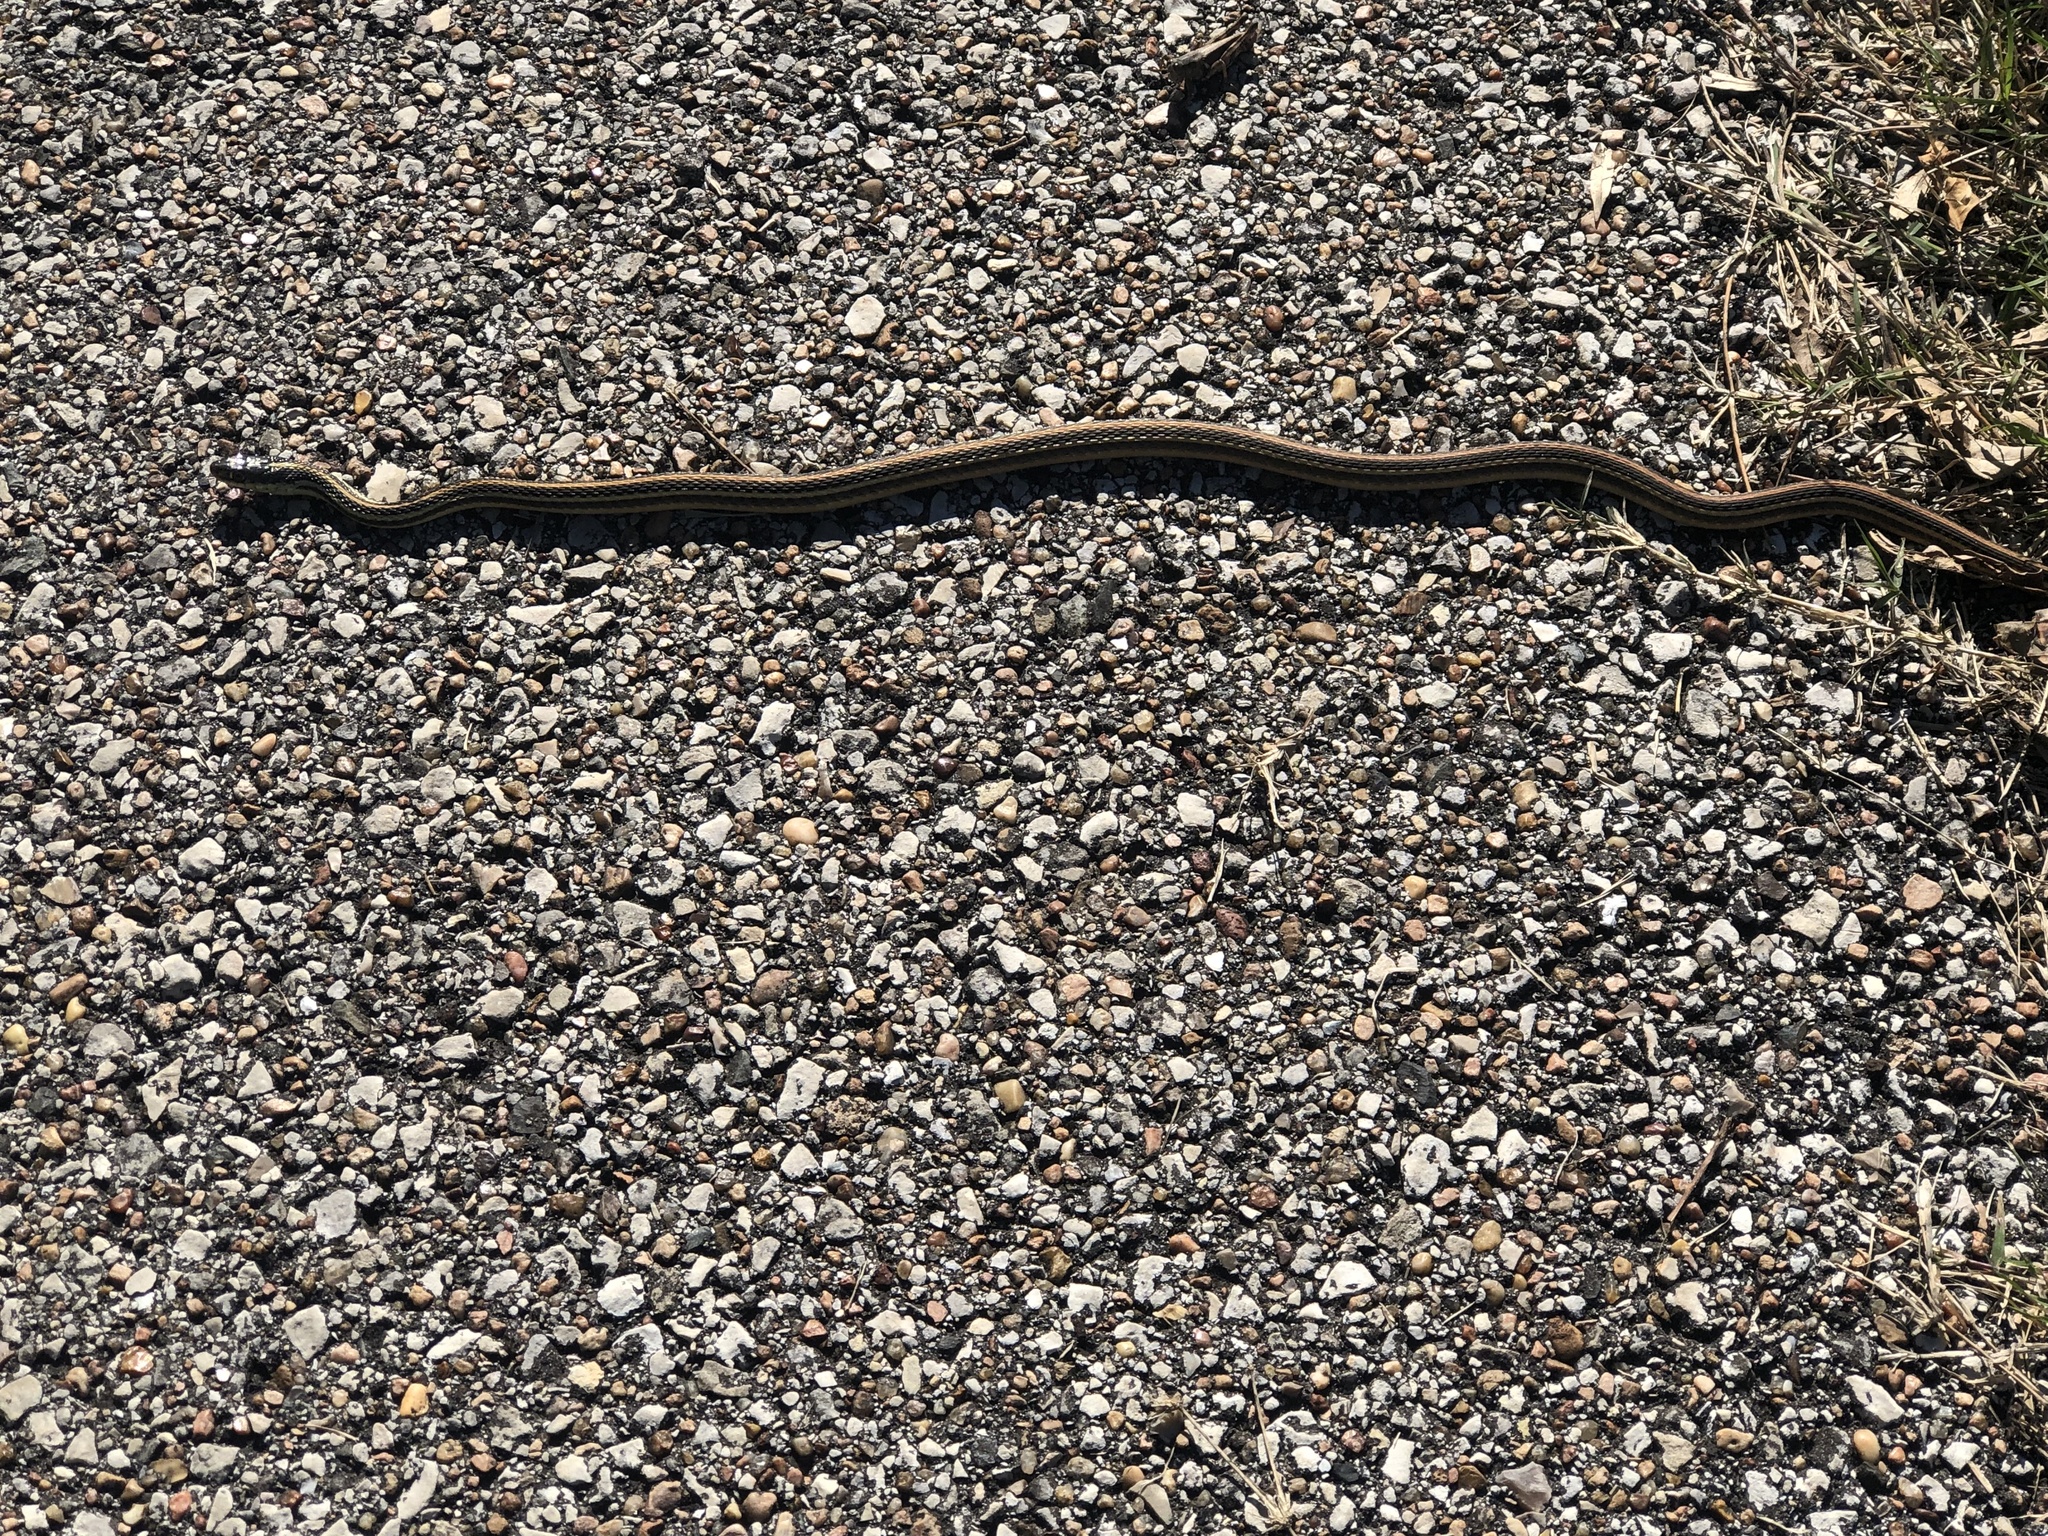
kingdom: Animalia
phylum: Chordata
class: Squamata
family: Colubridae
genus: Thamnophis
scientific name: Thamnophis proximus
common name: Western ribbon snake
